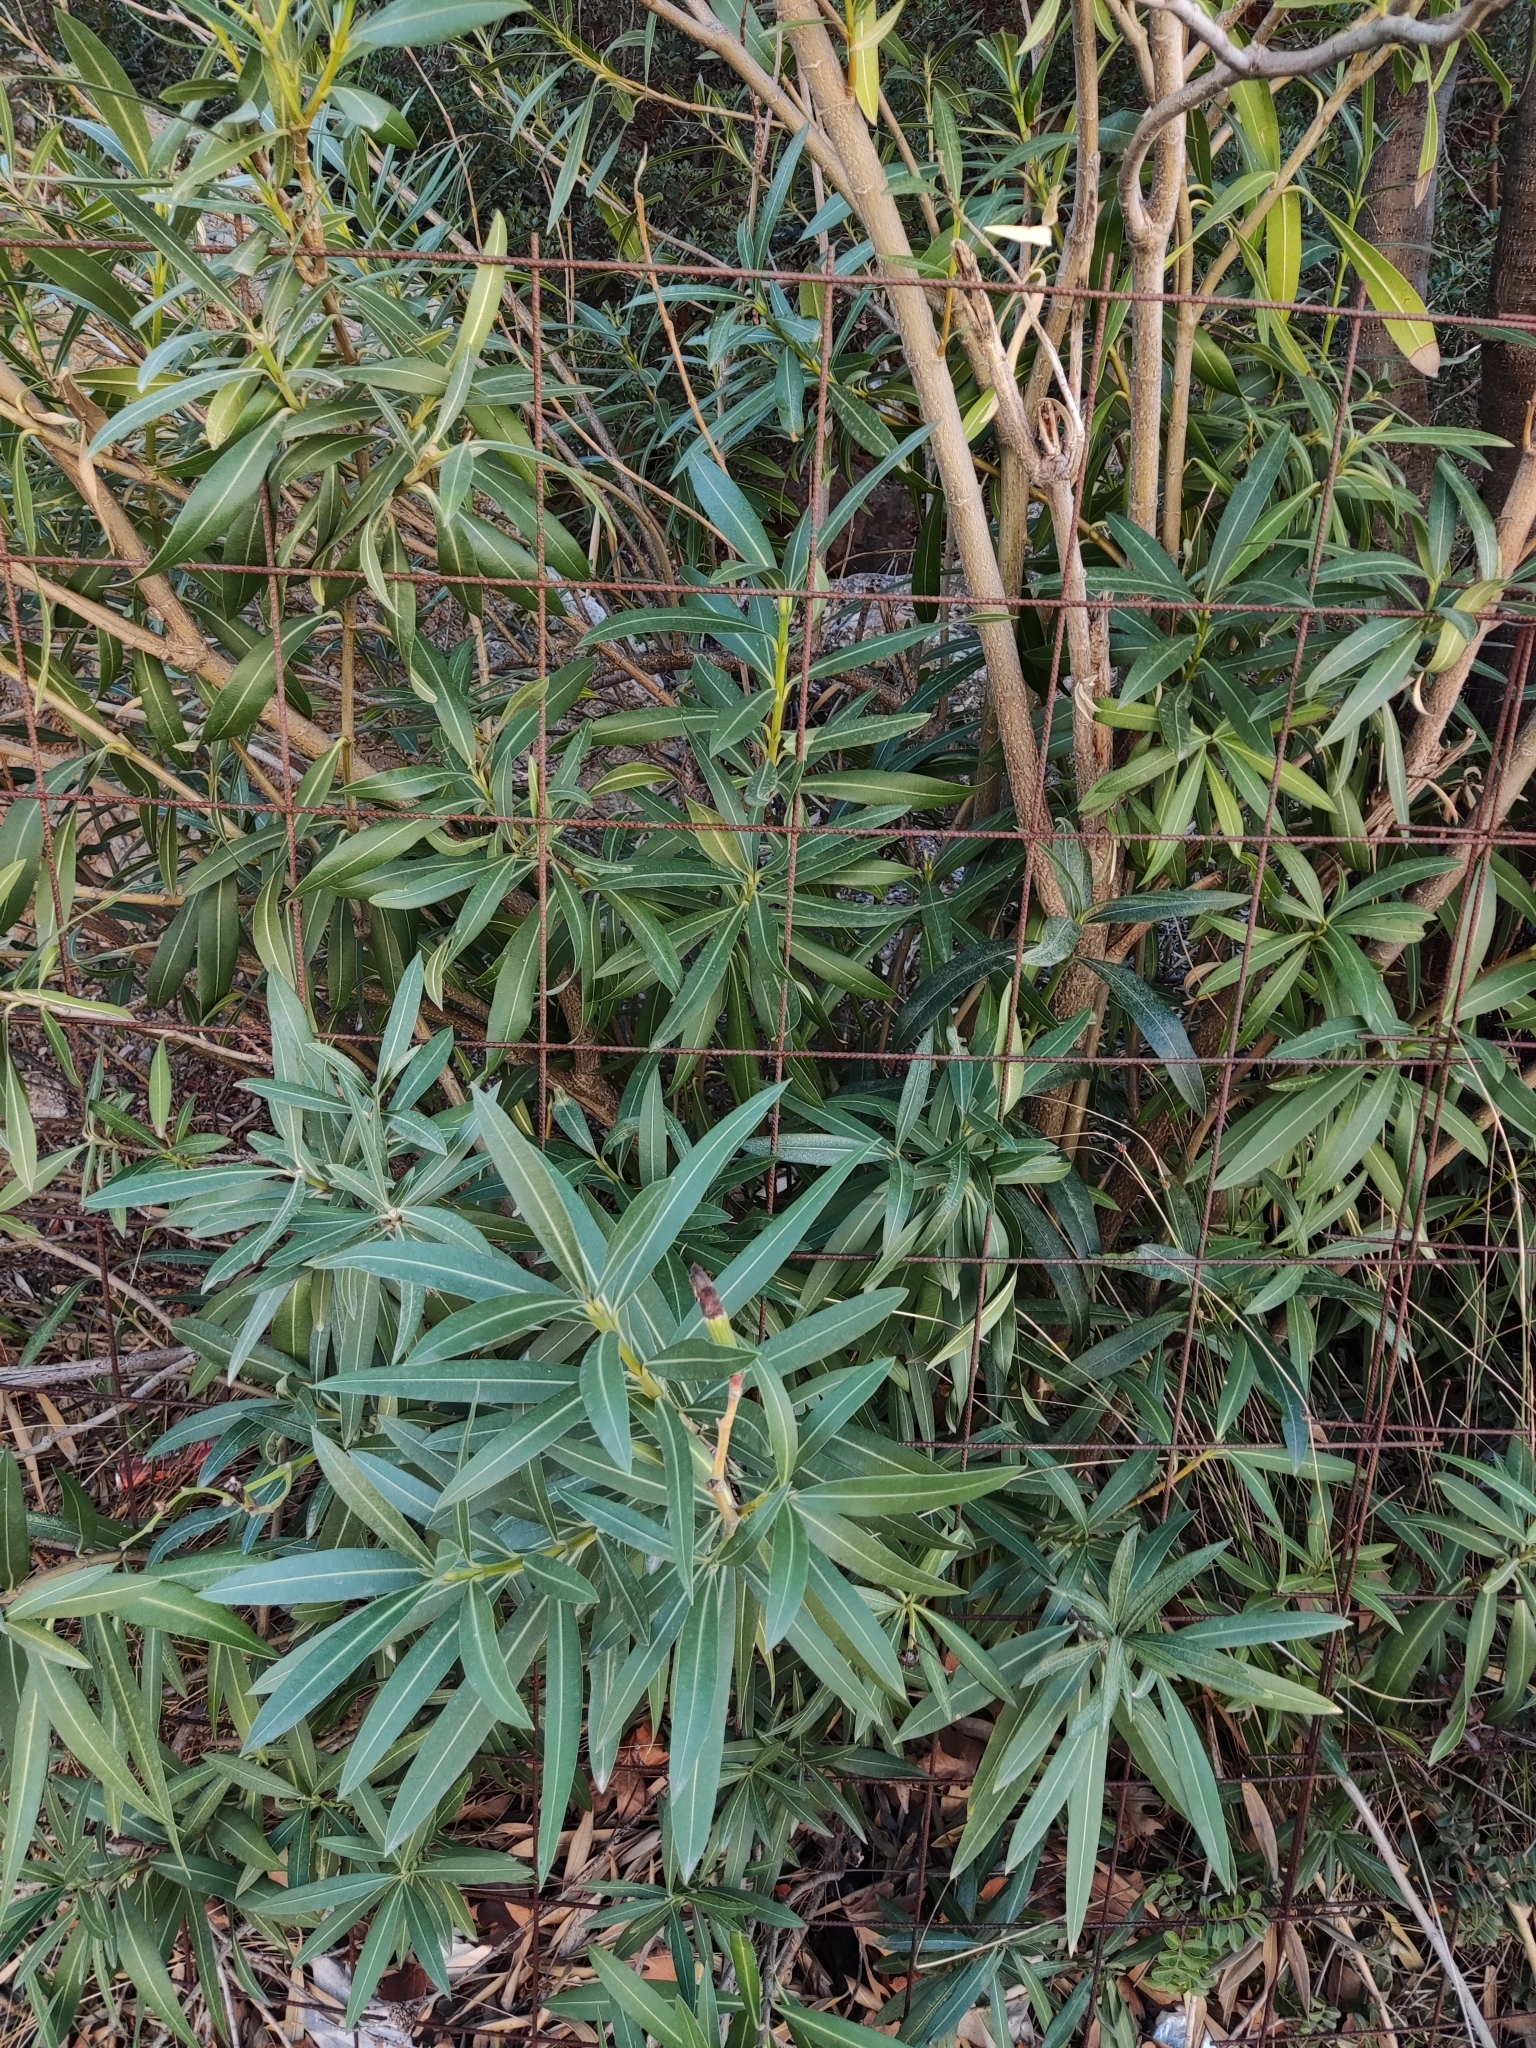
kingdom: Plantae
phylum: Tracheophyta
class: Magnoliopsida
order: Gentianales
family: Apocynaceae
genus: Nerium
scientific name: Nerium oleander
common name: Oleander
